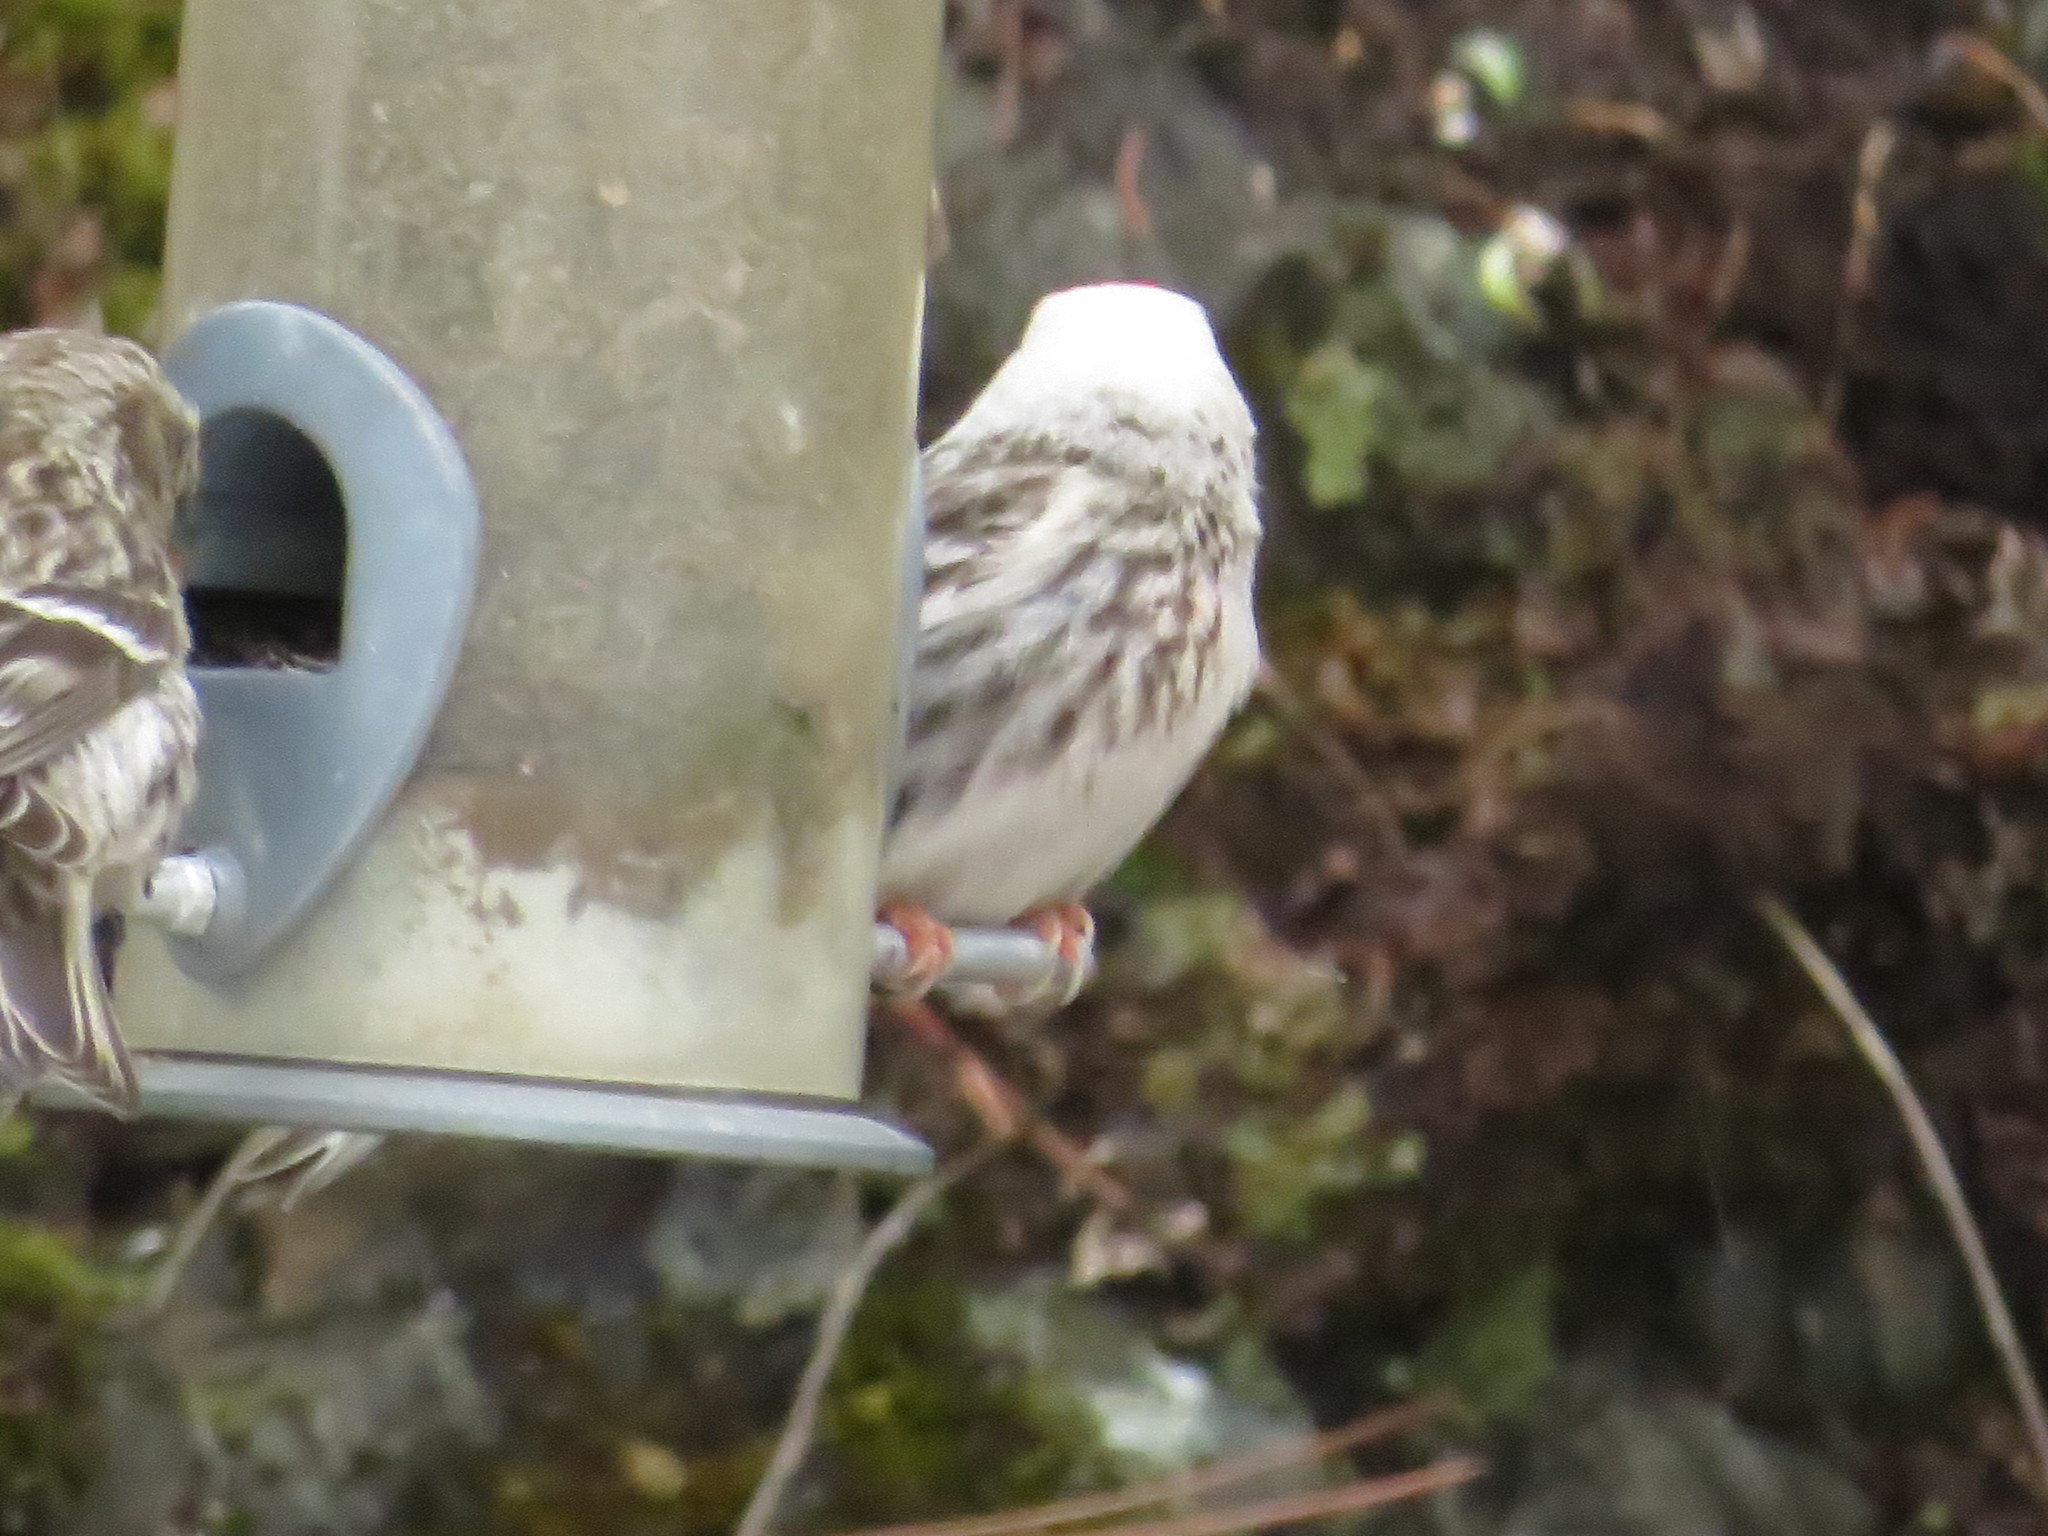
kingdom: Animalia
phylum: Chordata
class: Aves
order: Passeriformes
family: Fringillidae
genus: Acanthis
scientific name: Acanthis flammea
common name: Common redpoll
